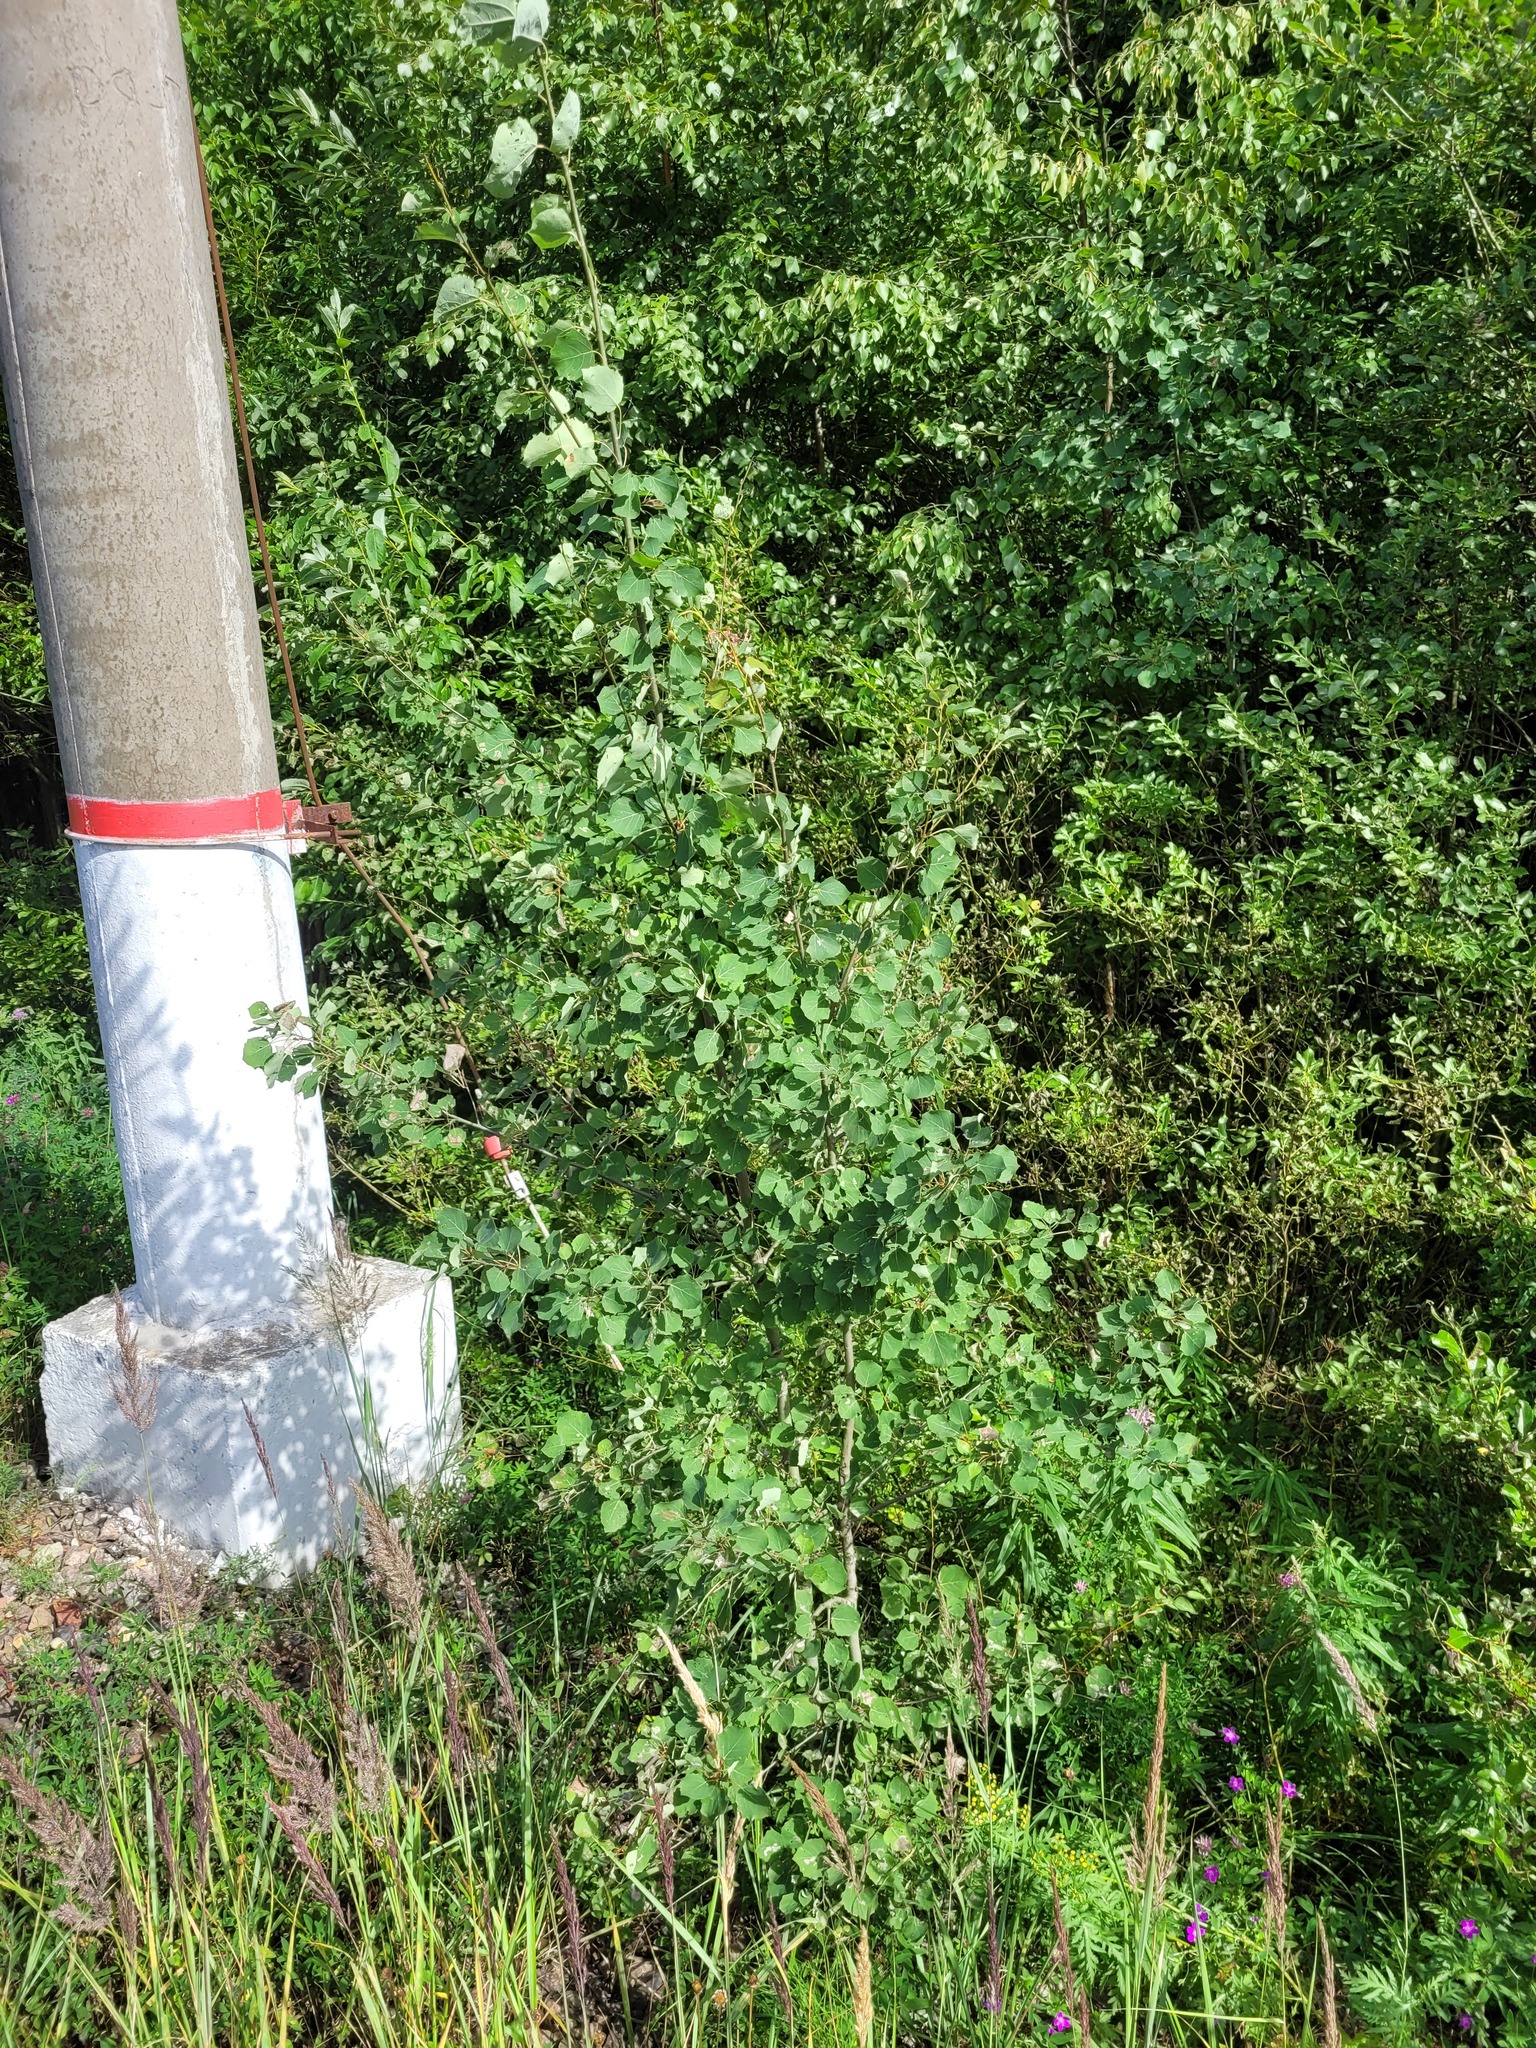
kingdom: Plantae
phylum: Tracheophyta
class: Magnoliopsida
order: Malpighiales
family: Salicaceae
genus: Populus
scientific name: Populus tremula
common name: European aspen
